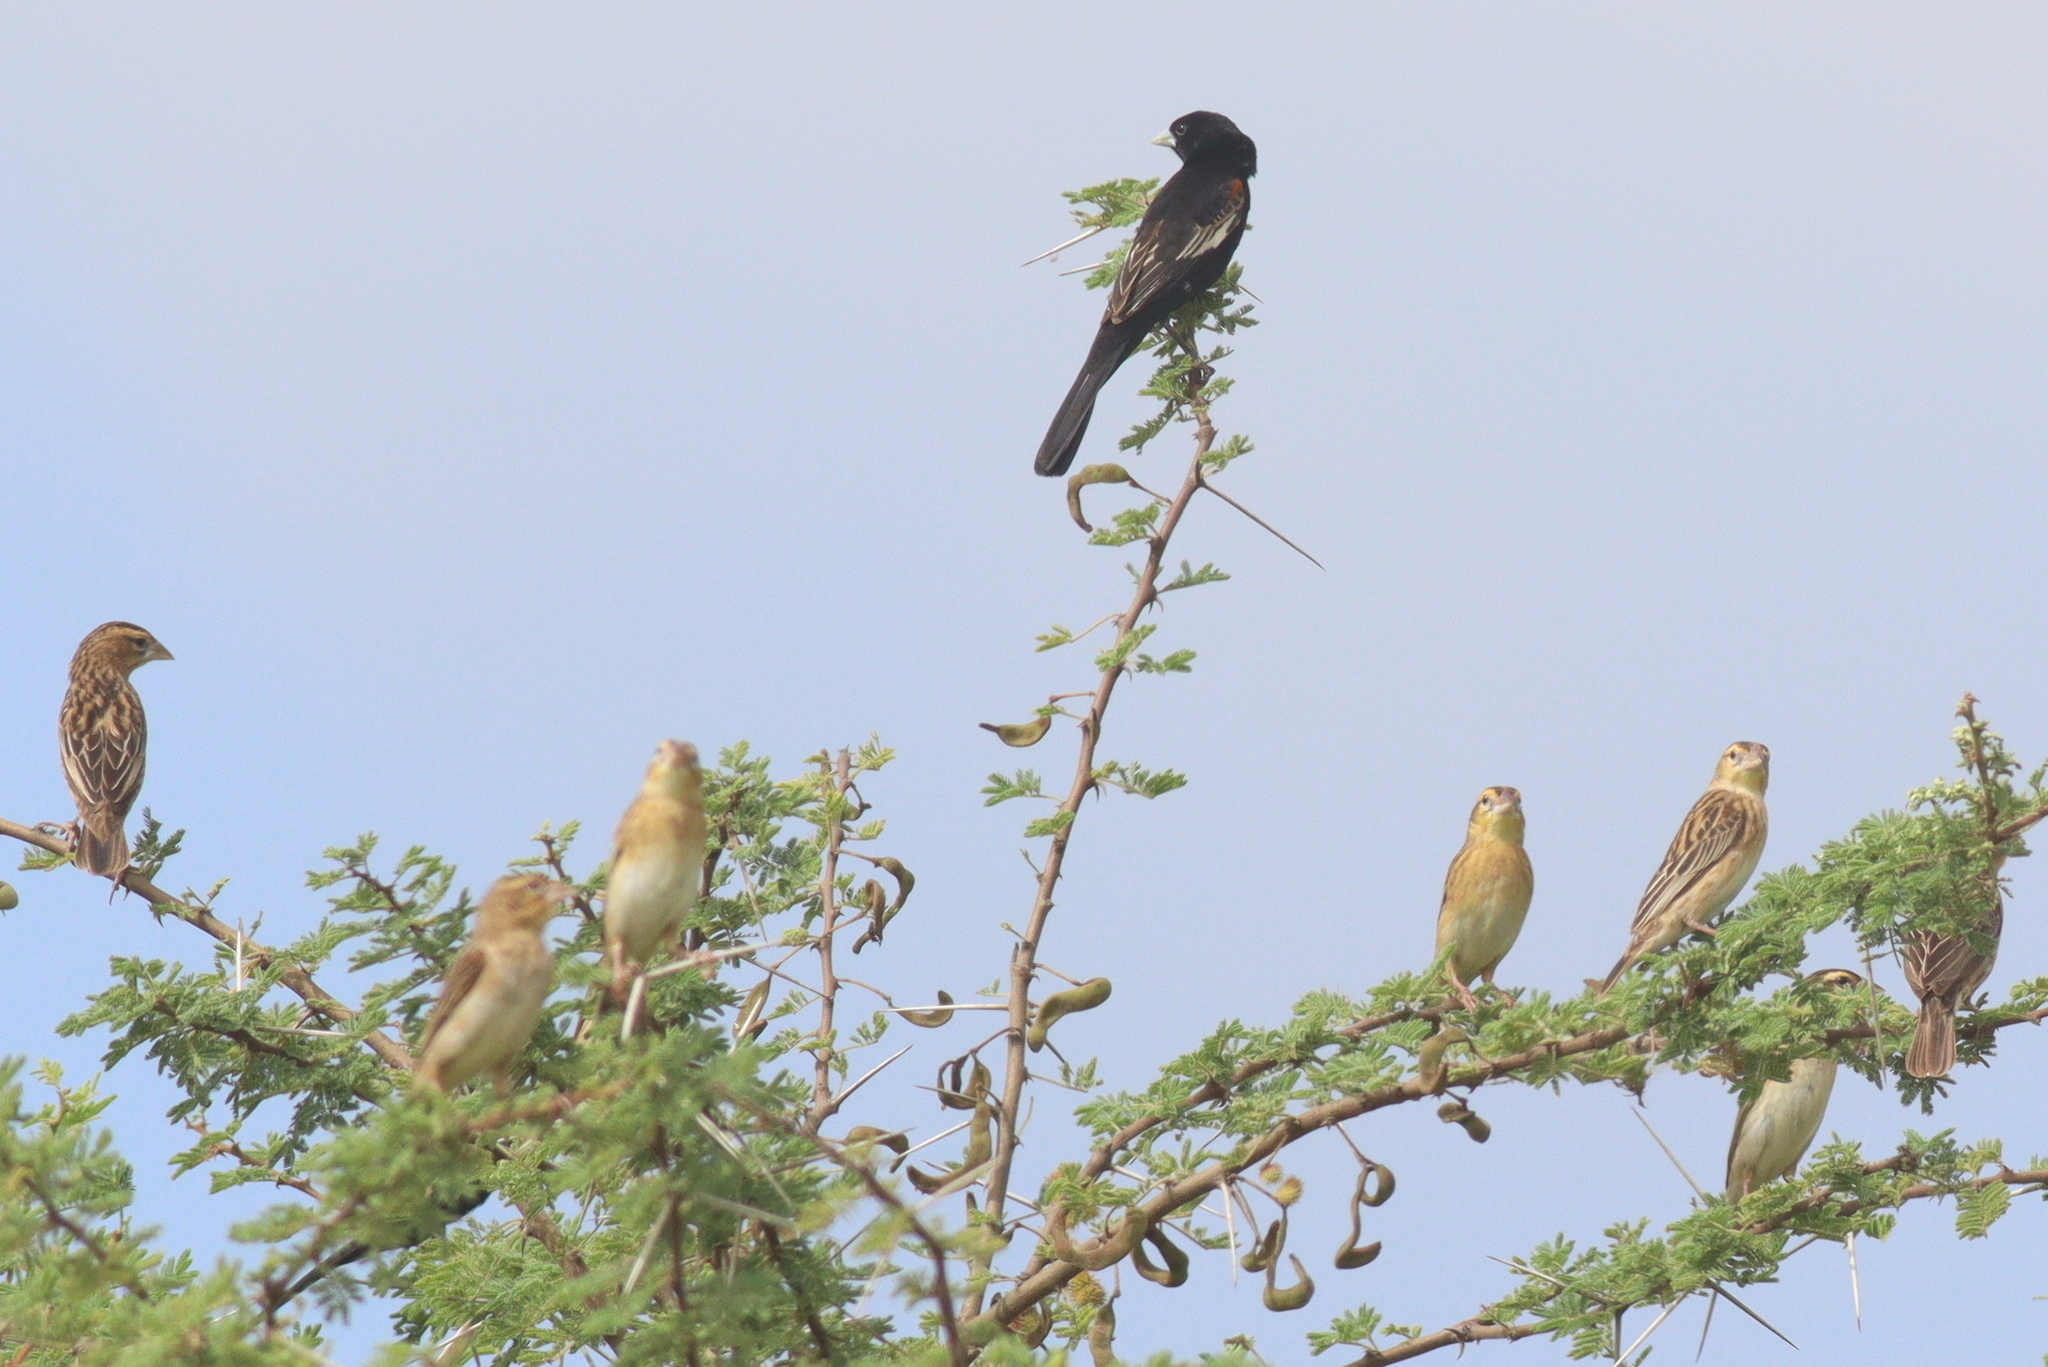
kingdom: Animalia
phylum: Chordata
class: Aves
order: Passeriformes
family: Ploceidae
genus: Euplectes
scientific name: Euplectes albonotatus
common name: White-winged widowbird
